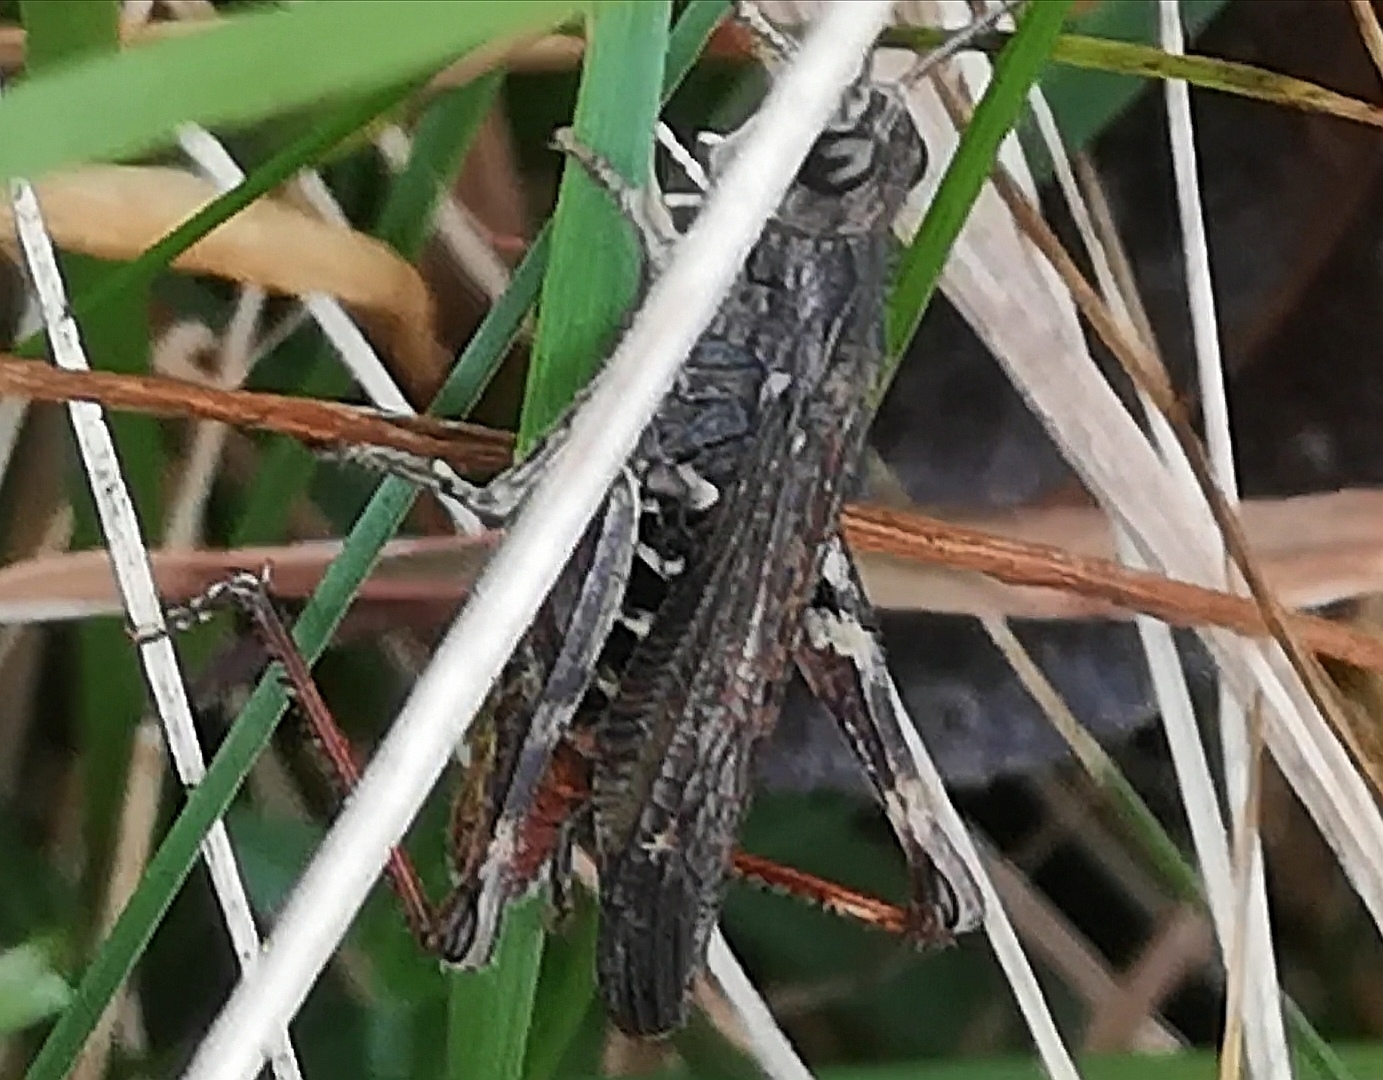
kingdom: Animalia
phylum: Arthropoda
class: Insecta
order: Orthoptera
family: Acrididae
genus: Chorthippus
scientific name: Chorthippus biguttulus
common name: Bow-winged grasshopper
